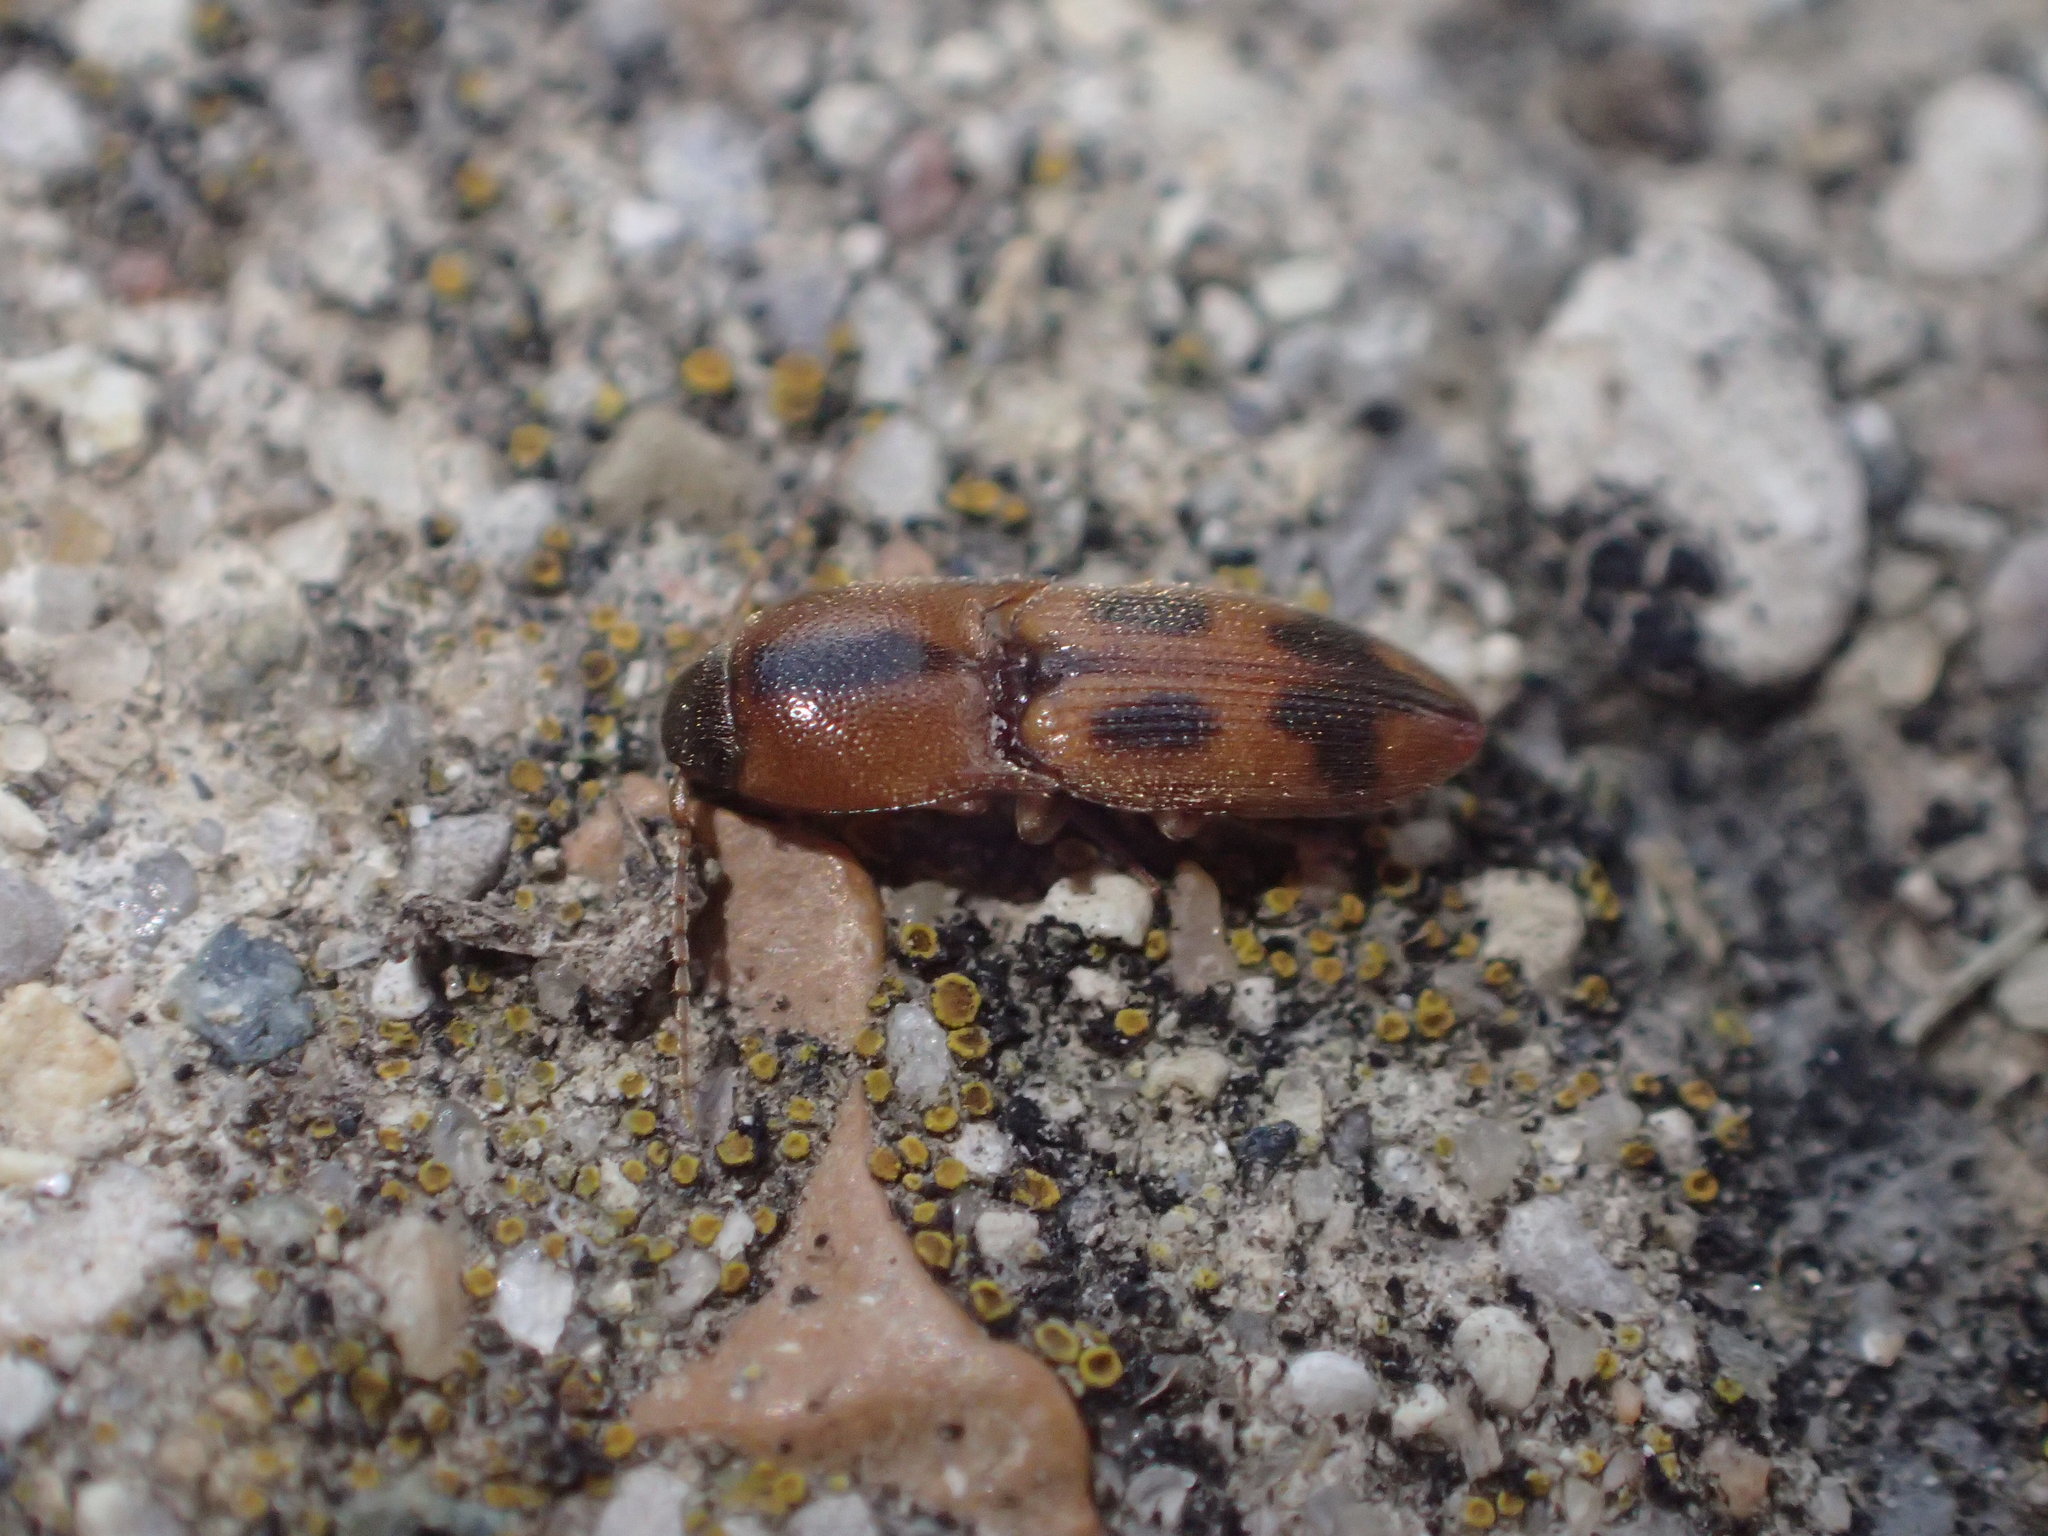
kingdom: Animalia
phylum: Arthropoda
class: Insecta
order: Coleoptera
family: Elateridae
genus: Aeolus
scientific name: Aeolus mellillus
